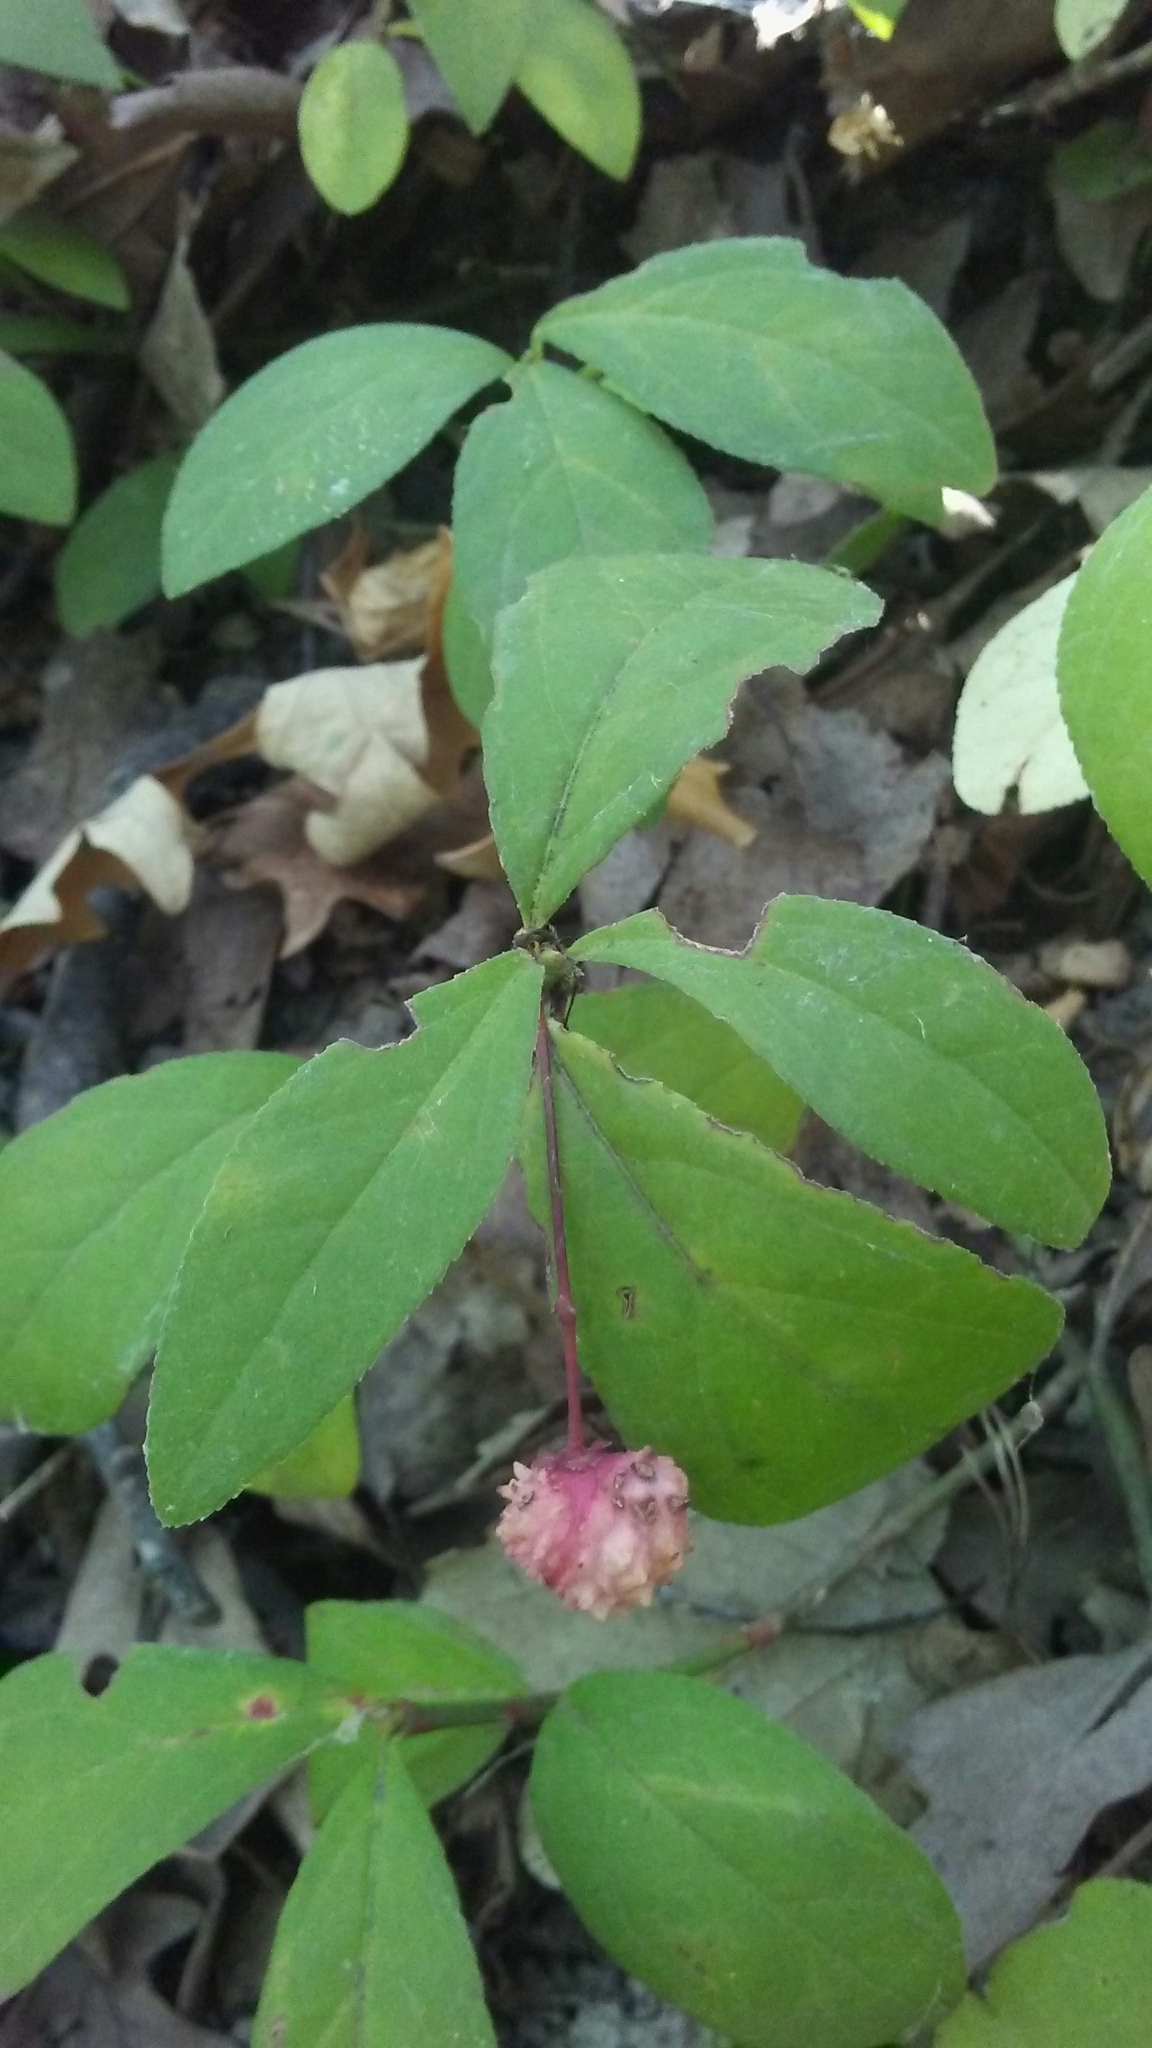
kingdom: Plantae
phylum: Tracheophyta
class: Magnoliopsida
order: Celastrales
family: Celastraceae
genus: Euonymus
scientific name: Euonymus obovatus
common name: Running strawberry-bush
